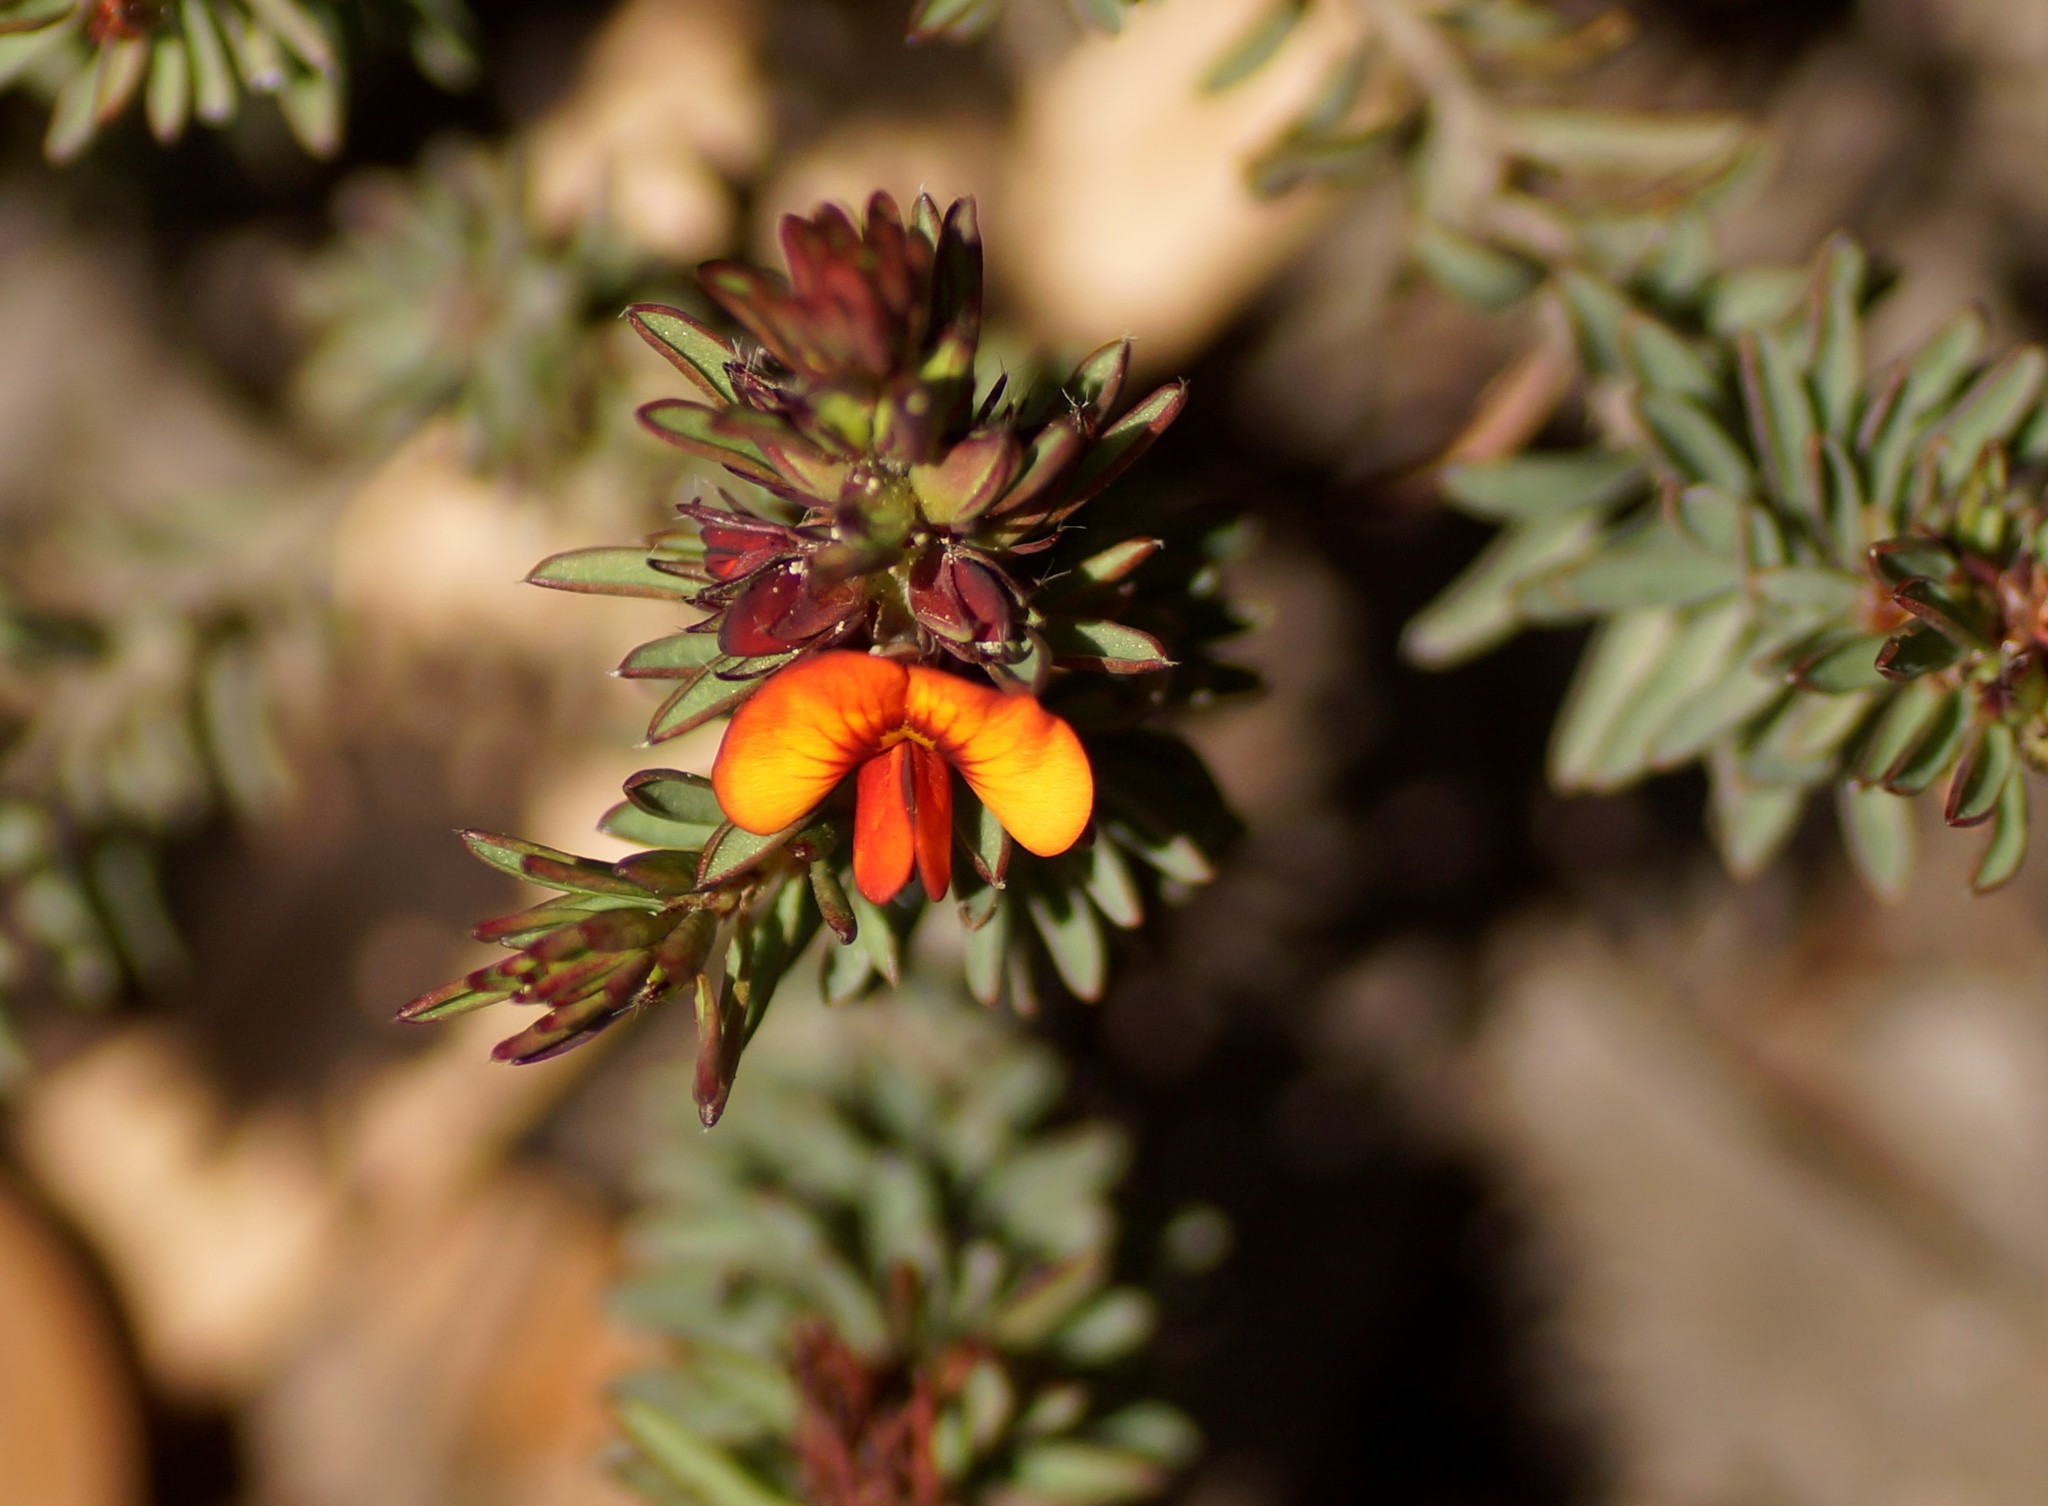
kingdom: Plantae
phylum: Tracheophyta
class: Magnoliopsida
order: Fabales
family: Fabaceae
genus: Pultenaea
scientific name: Pultenaea humilis
